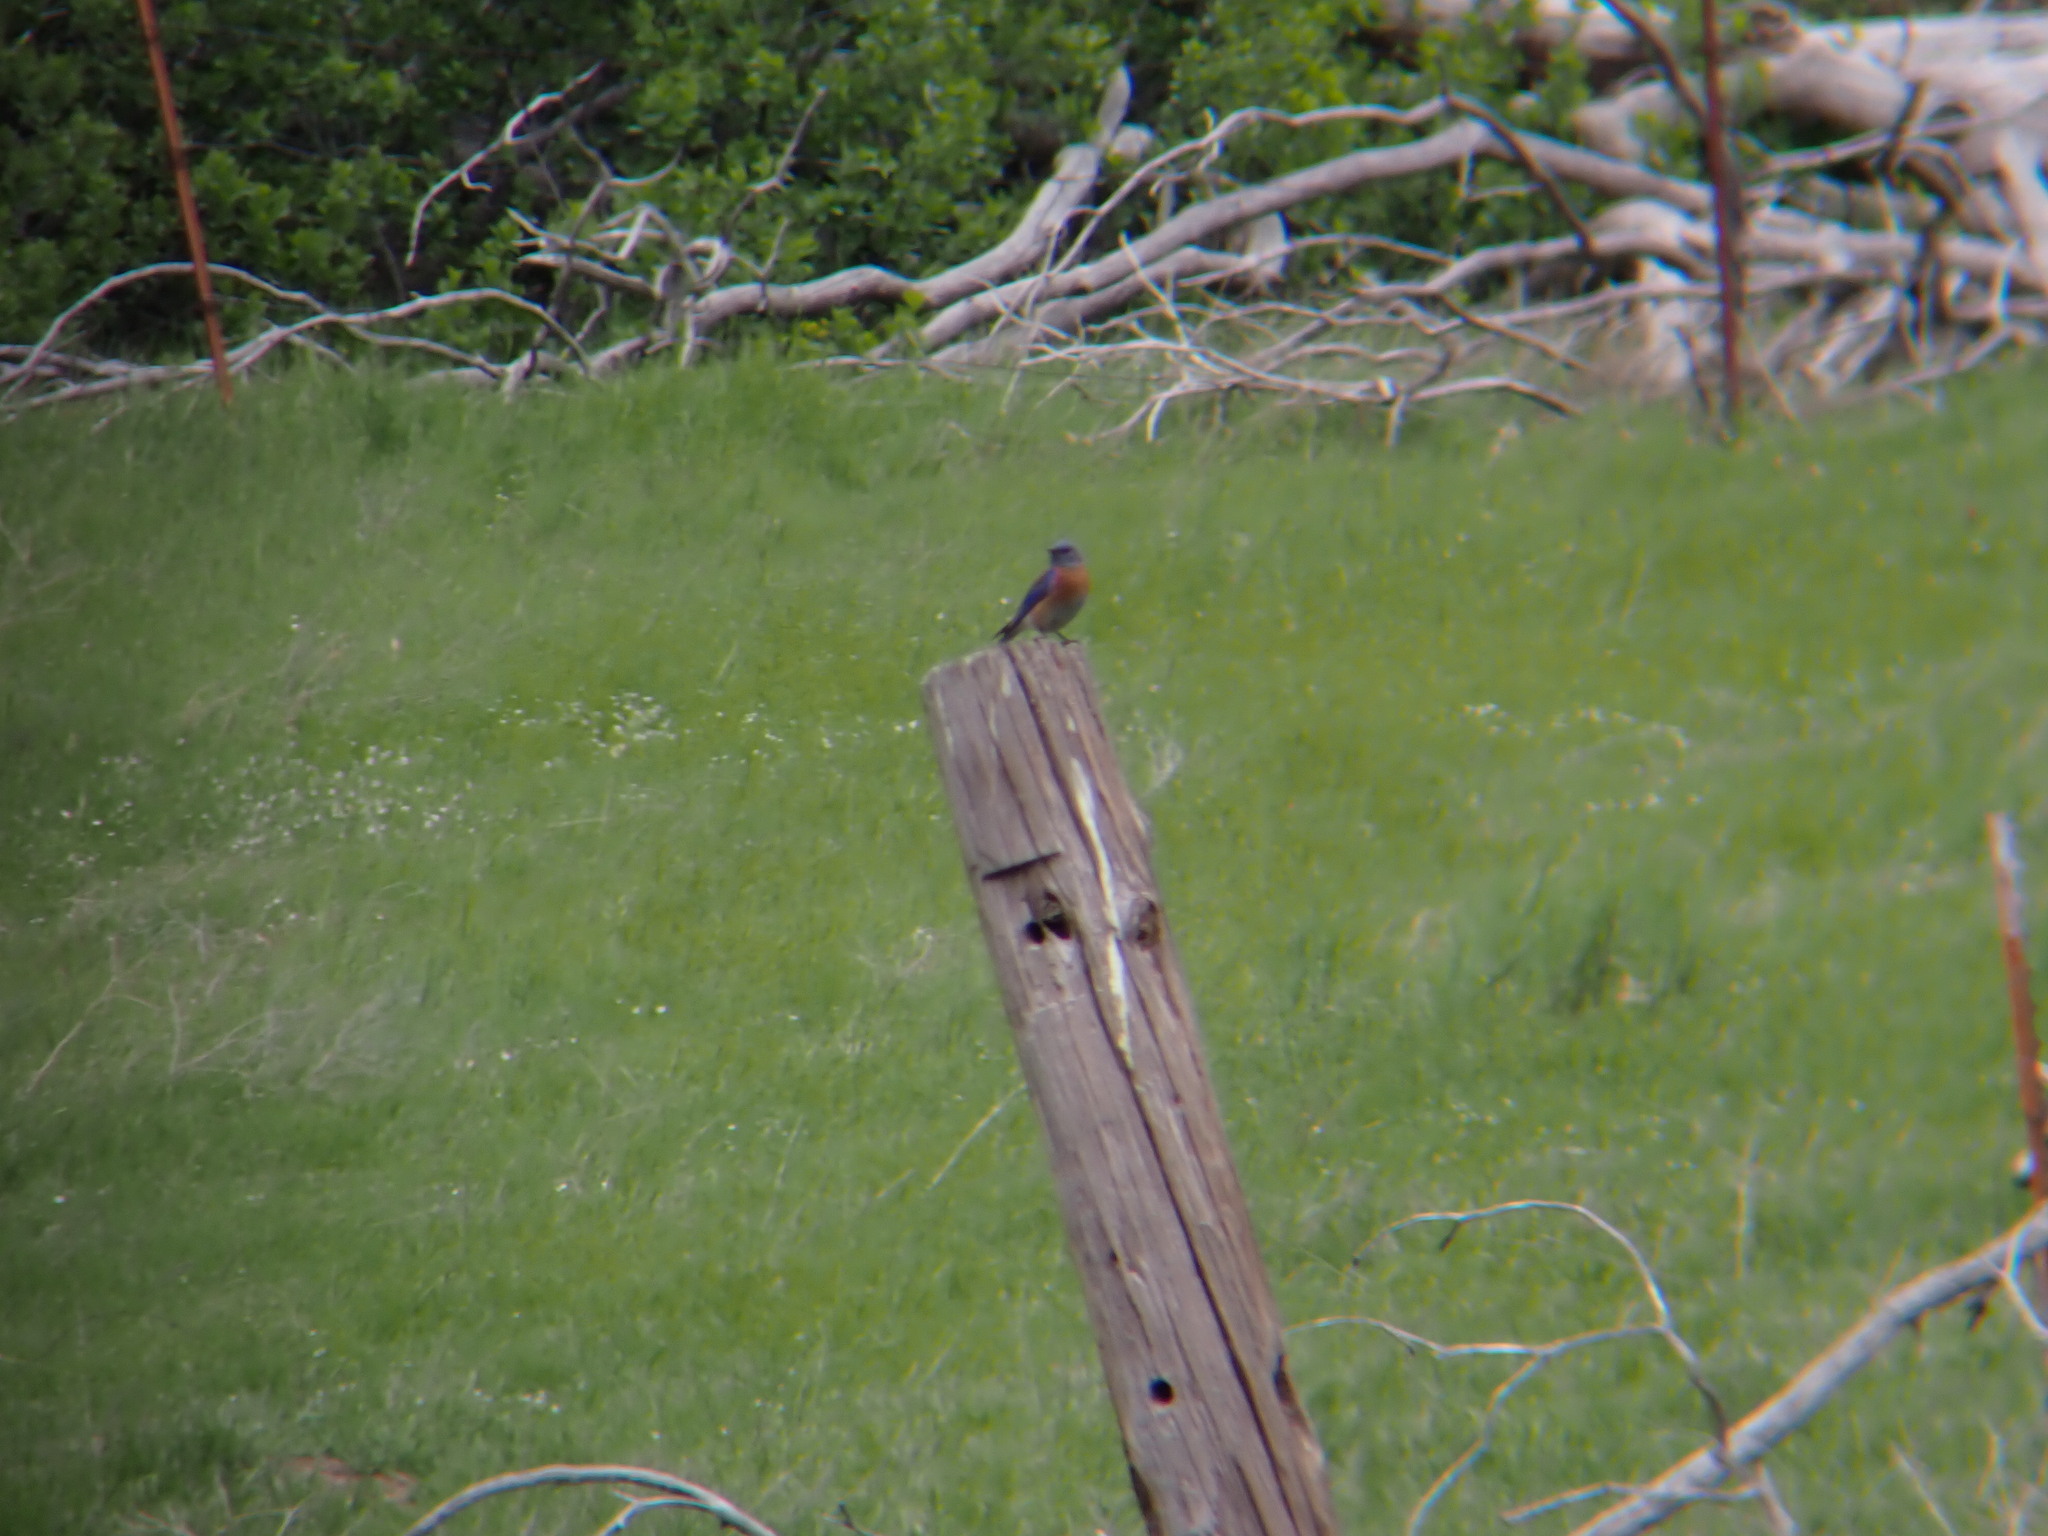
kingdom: Animalia
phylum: Chordata
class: Aves
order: Passeriformes
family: Turdidae
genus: Sialia
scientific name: Sialia mexicana
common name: Western bluebird
